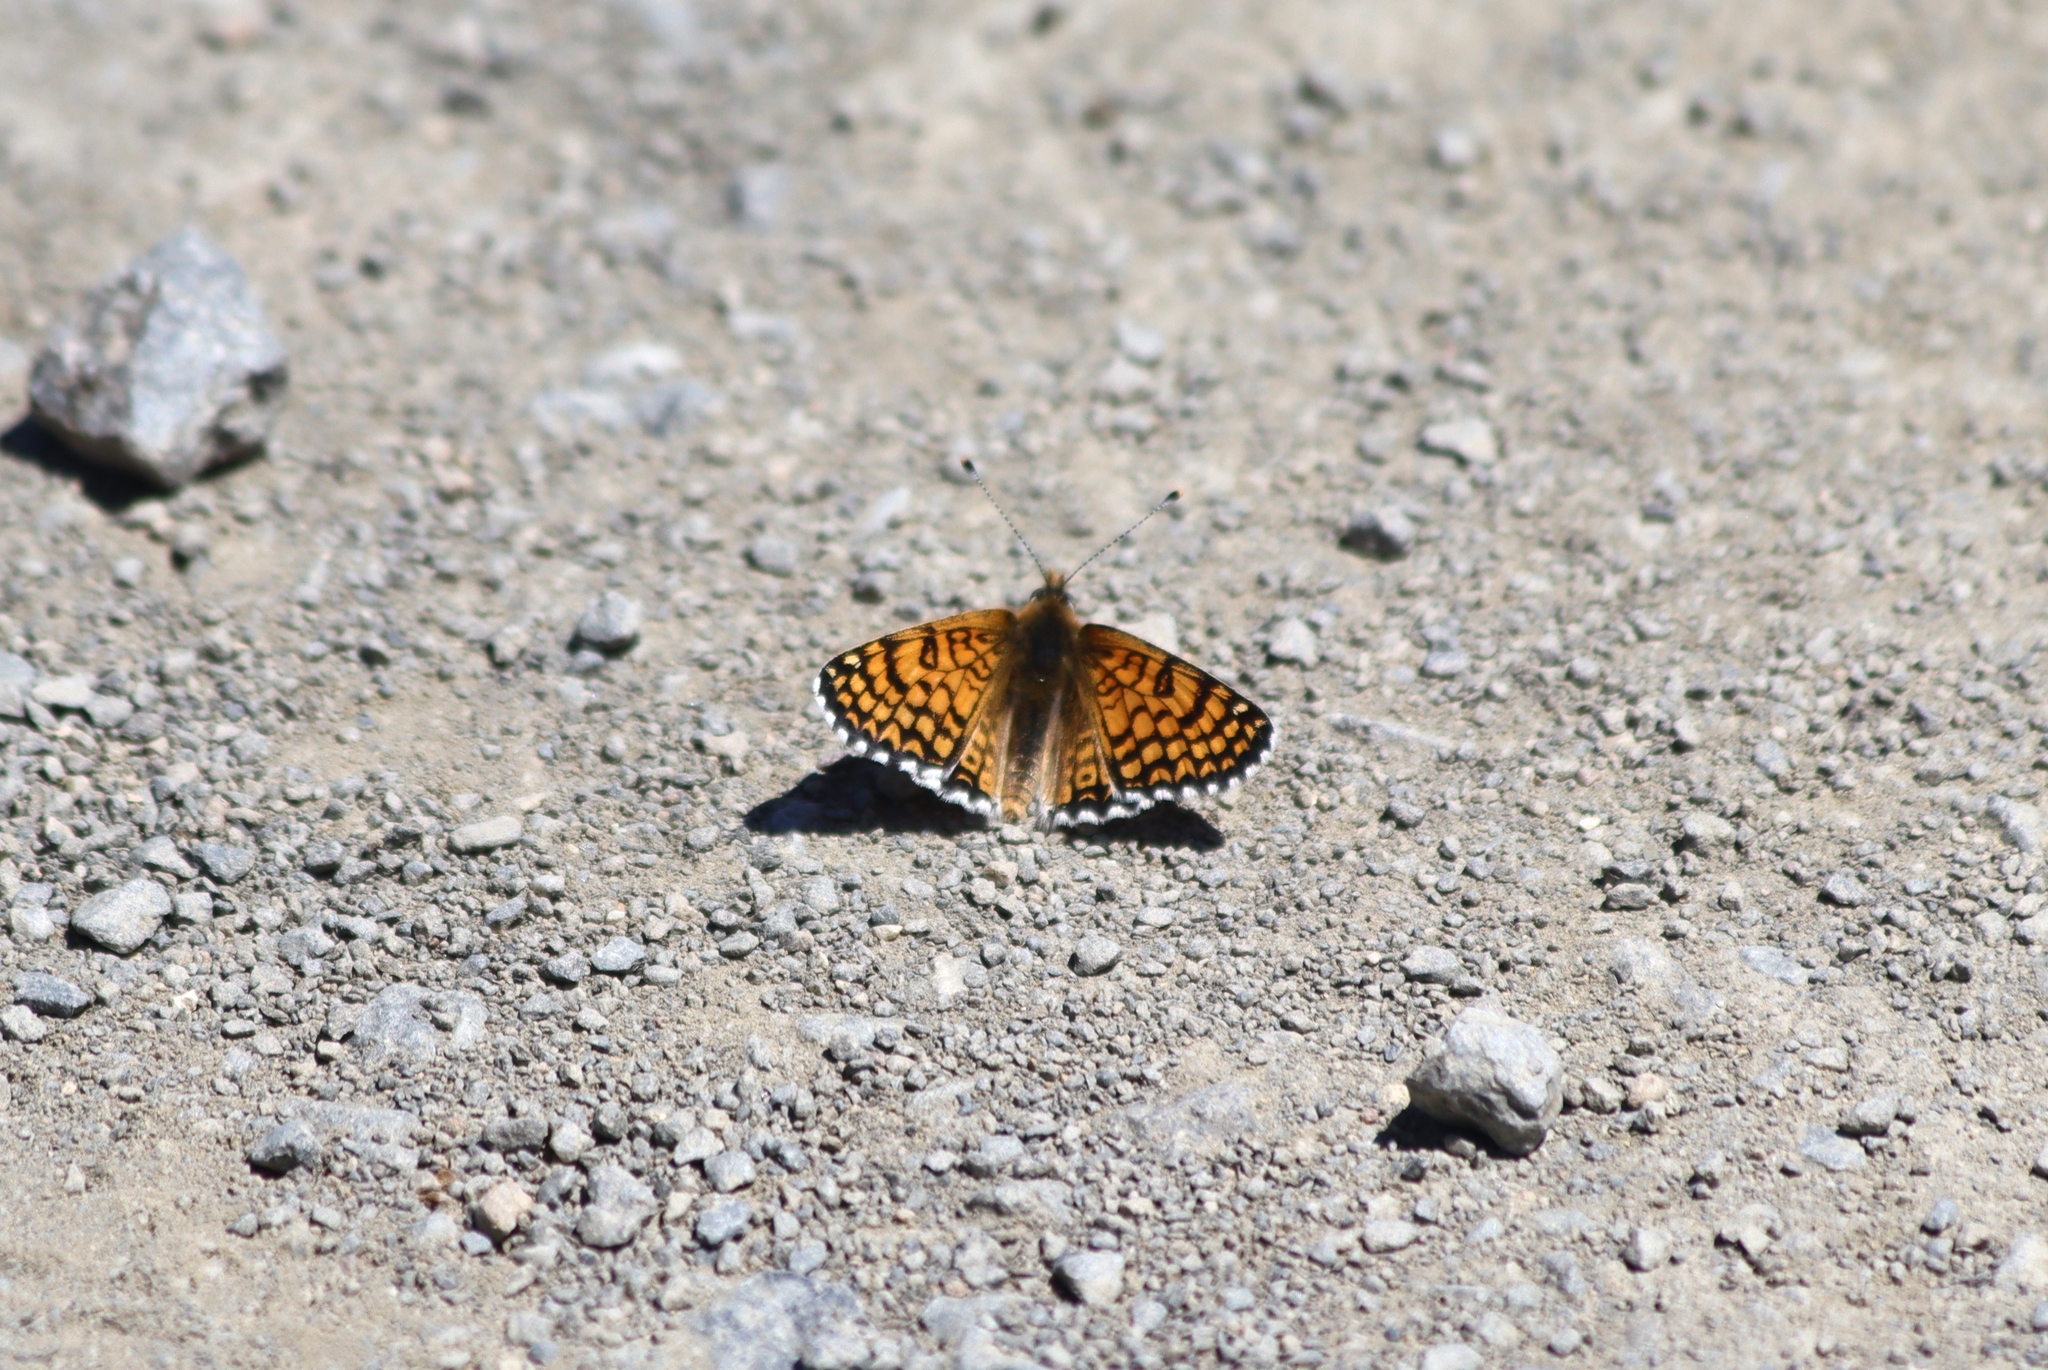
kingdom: Animalia
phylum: Arthropoda
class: Insecta
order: Lepidoptera
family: Nymphalidae
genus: Melitaea
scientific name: Melitaea cinxia
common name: Glanville fritillary
